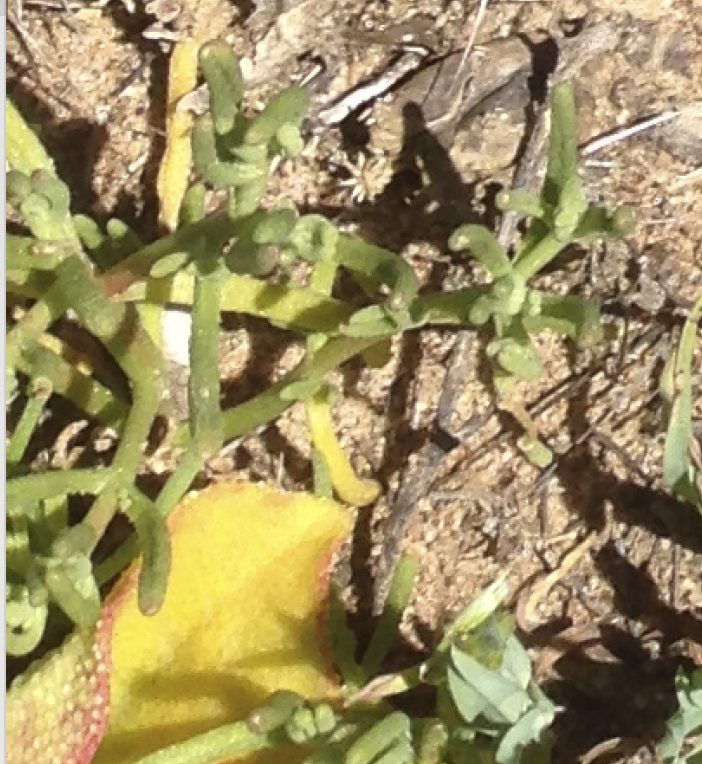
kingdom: Plantae
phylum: Tracheophyta
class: Magnoliopsida
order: Caryophyllales
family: Aizoaceae
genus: Mesembryanthemum
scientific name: Mesembryanthemum nodiflorum
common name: Slenderleaf iceplant
